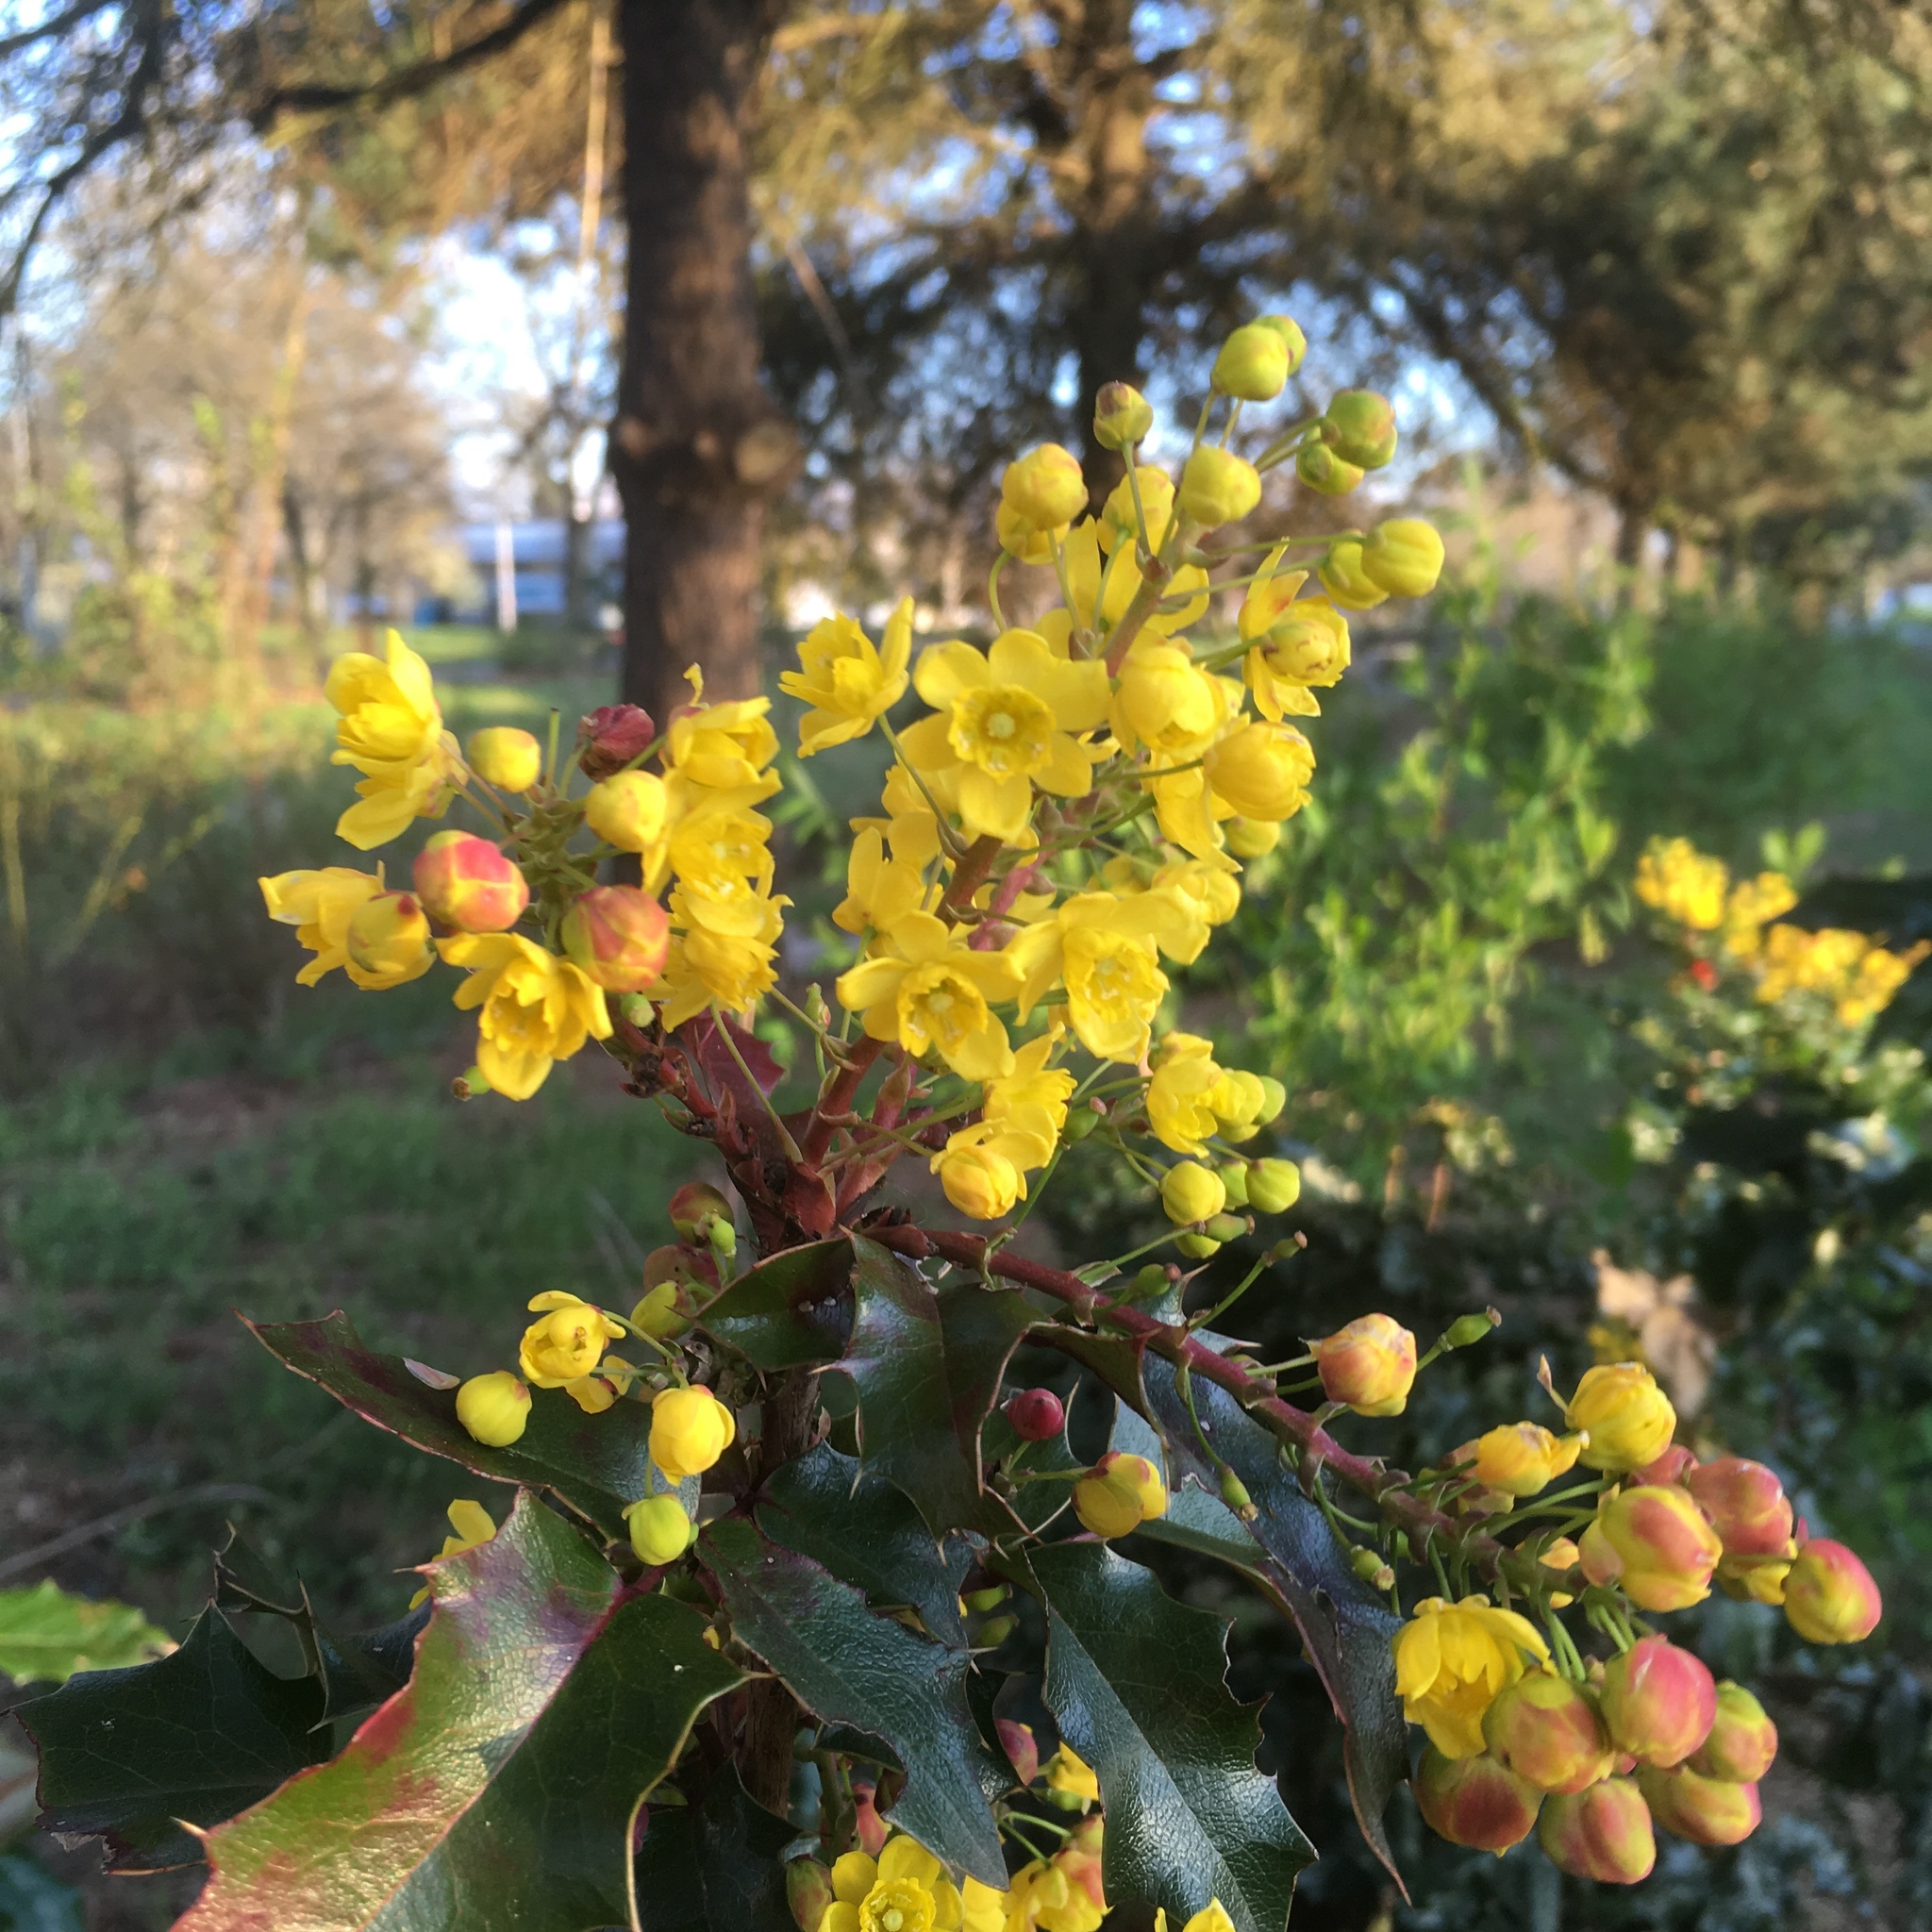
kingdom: Plantae
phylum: Tracheophyta
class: Magnoliopsida
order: Ranunculales
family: Berberidaceae
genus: Mahonia
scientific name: Mahonia aquifolium
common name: Oregon-grape
